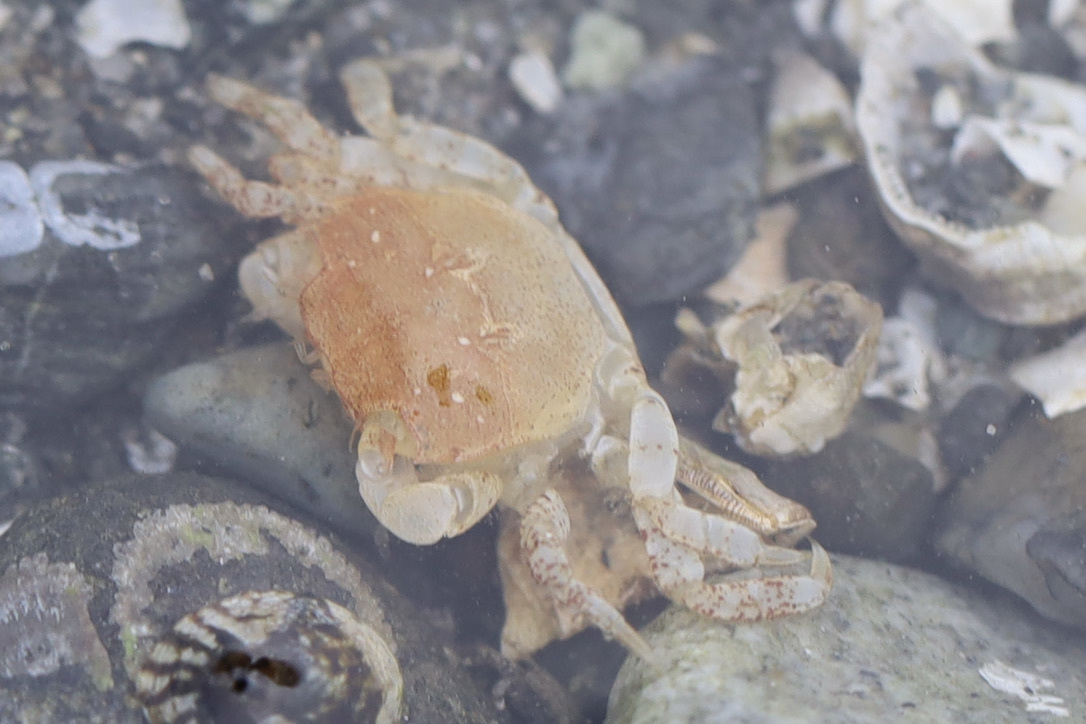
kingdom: Animalia
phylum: Arthropoda
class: Malacostraca
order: Decapoda
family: Varunidae
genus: Hemigrapsus
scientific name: Hemigrapsus oregonensis
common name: Yellow shore crab
